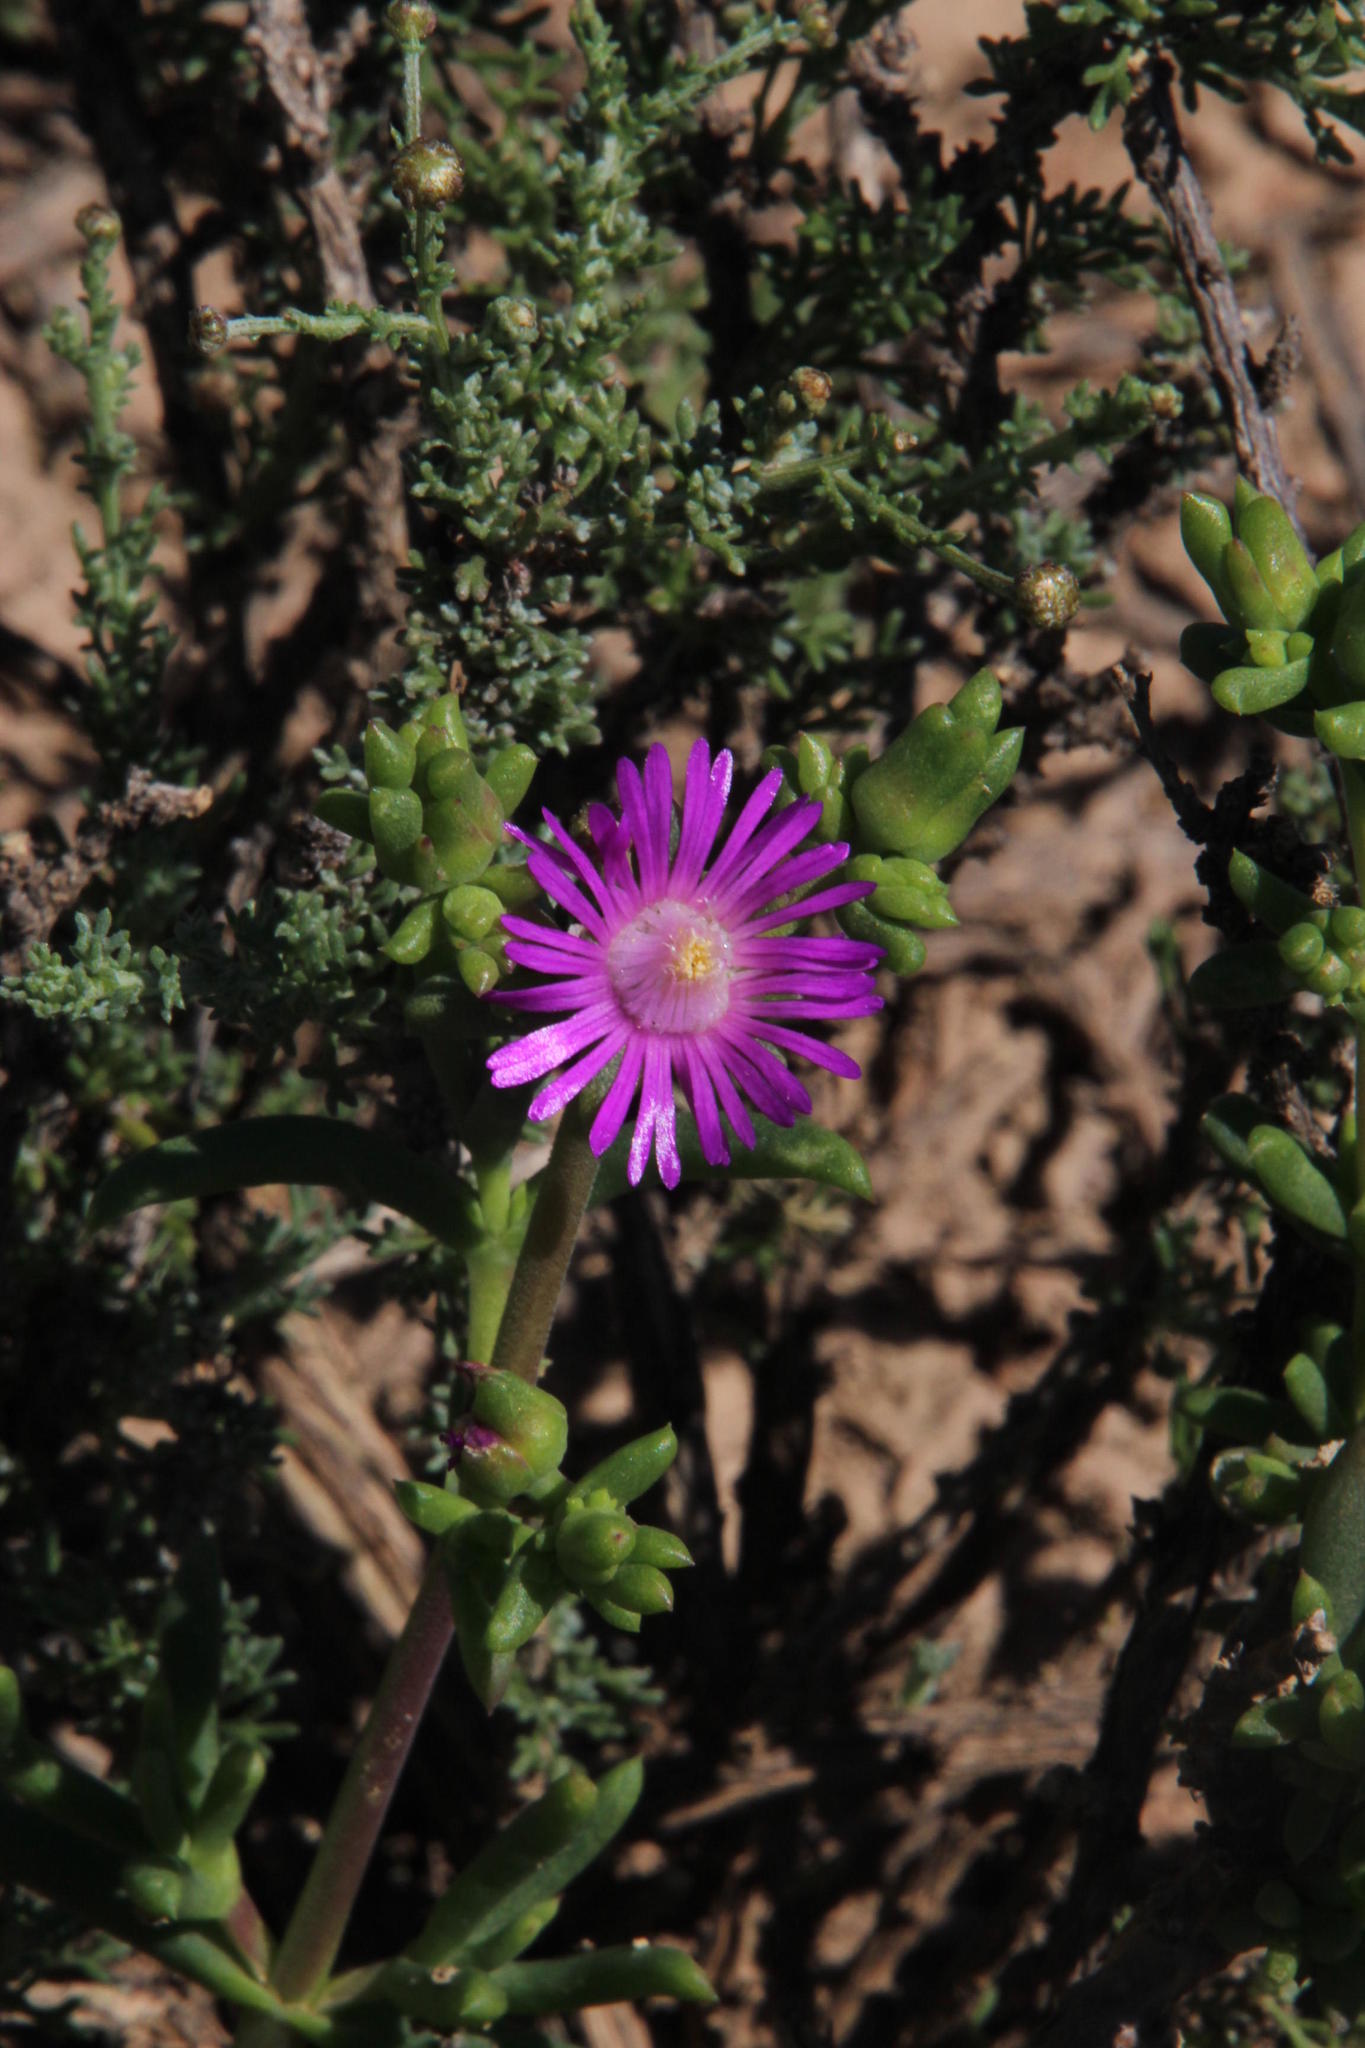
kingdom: Plantae
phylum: Tracheophyta
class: Magnoliopsida
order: Caryophyllales
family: Aizoaceae
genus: Delosperma
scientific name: Delosperma peersii
